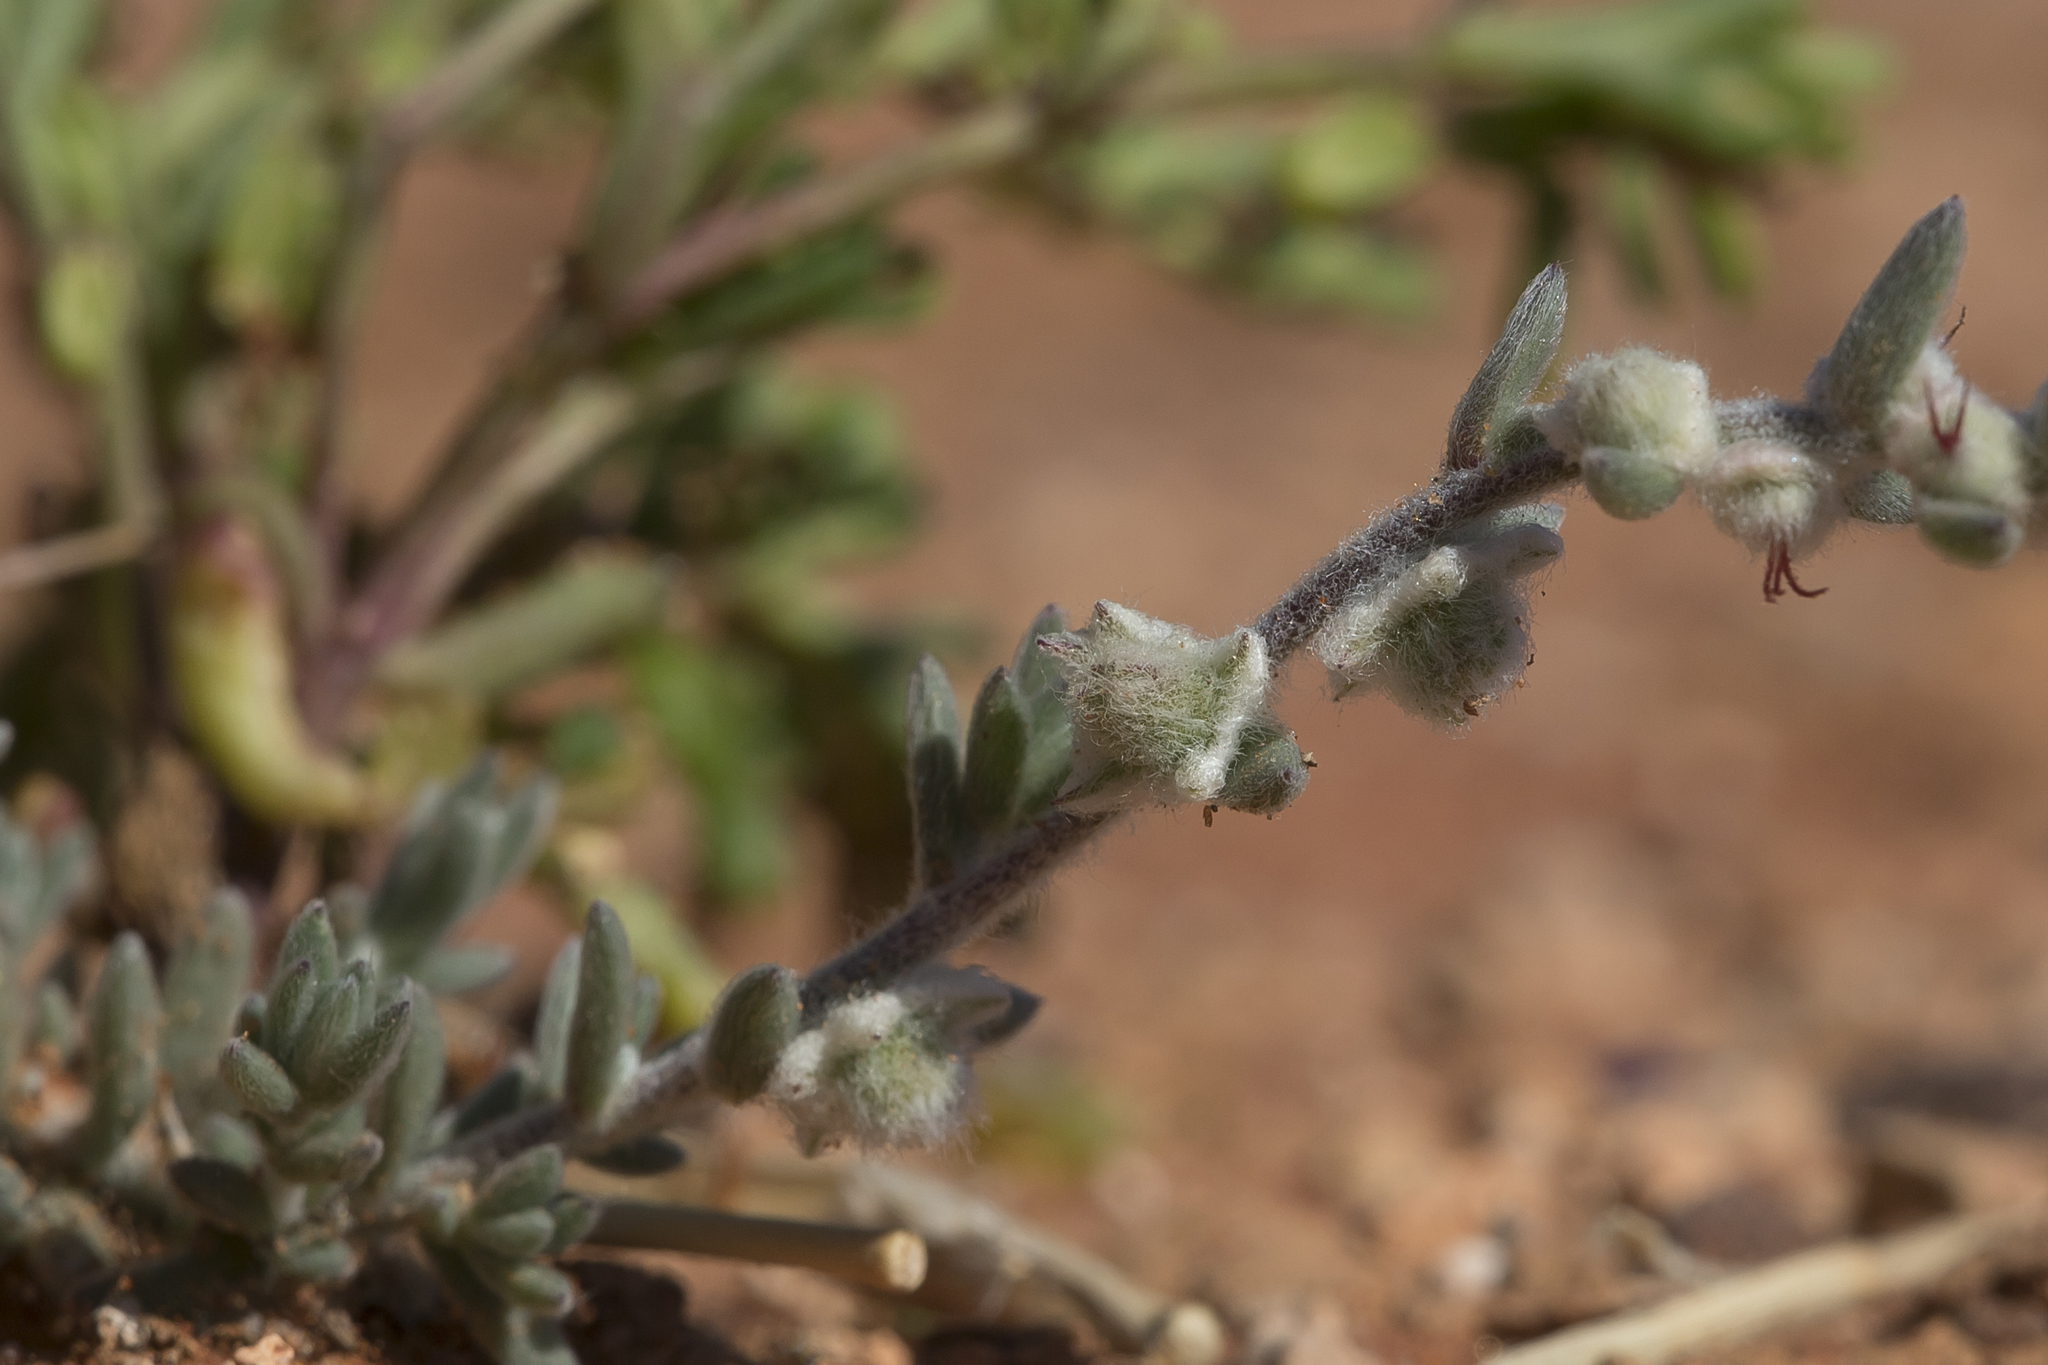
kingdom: Plantae
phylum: Tracheophyta
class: Magnoliopsida
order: Caryophyllales
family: Amaranthaceae
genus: Maireana
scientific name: Maireana sclerolaenoides
